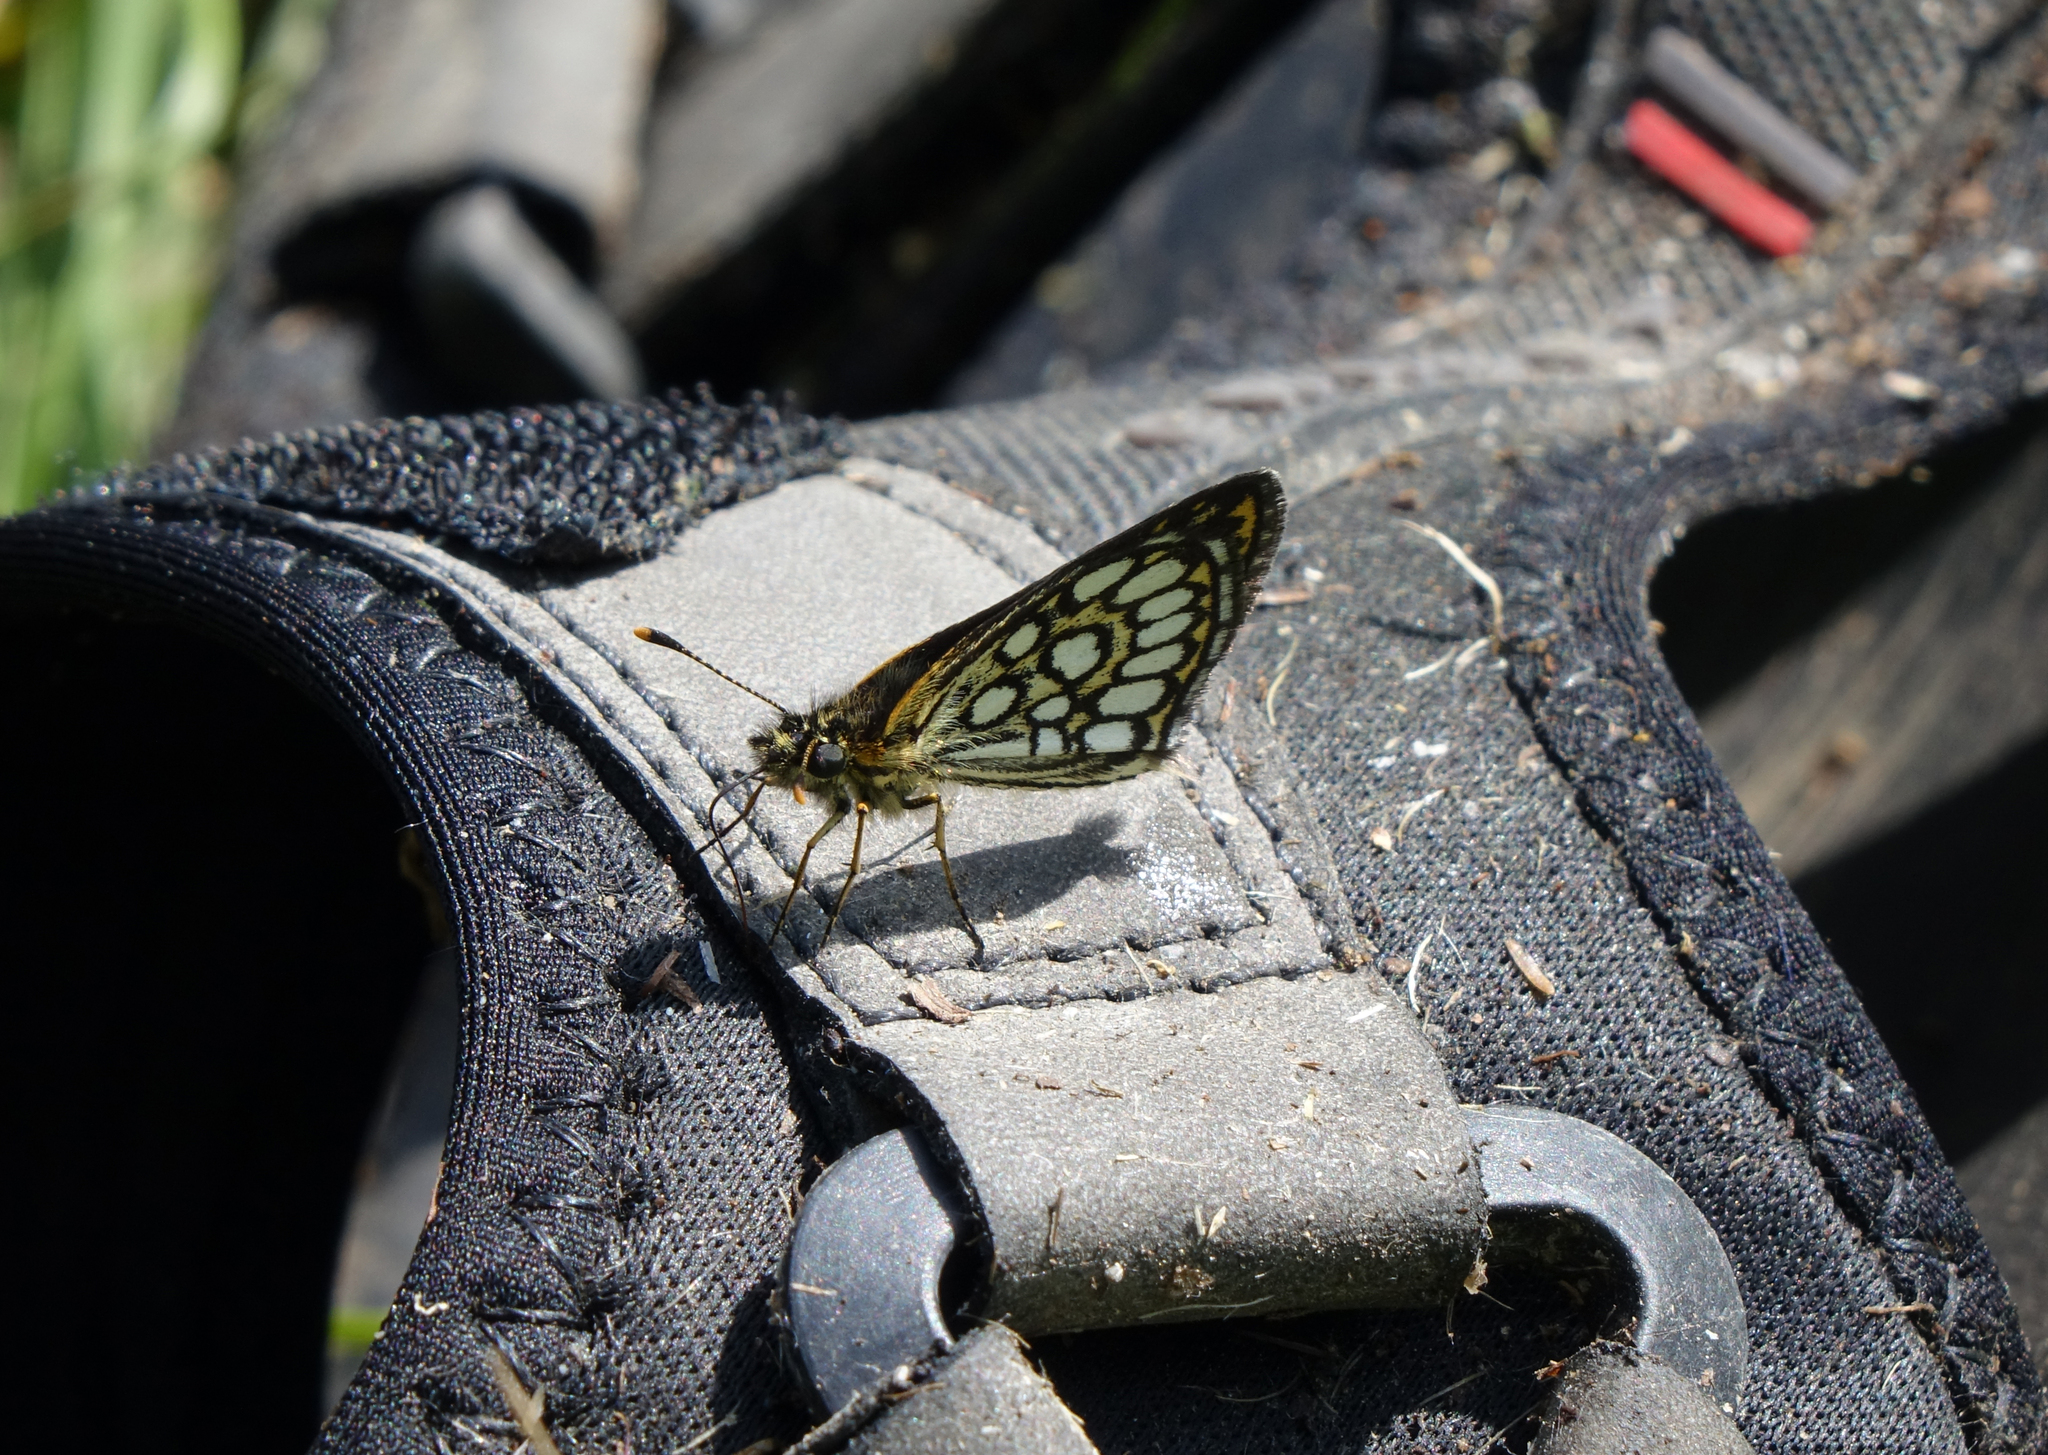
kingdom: Animalia
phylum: Arthropoda
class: Insecta
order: Lepidoptera
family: Hesperiidae
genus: Heteropterus
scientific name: Heteropterus morpheus
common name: Large chequered skipper
